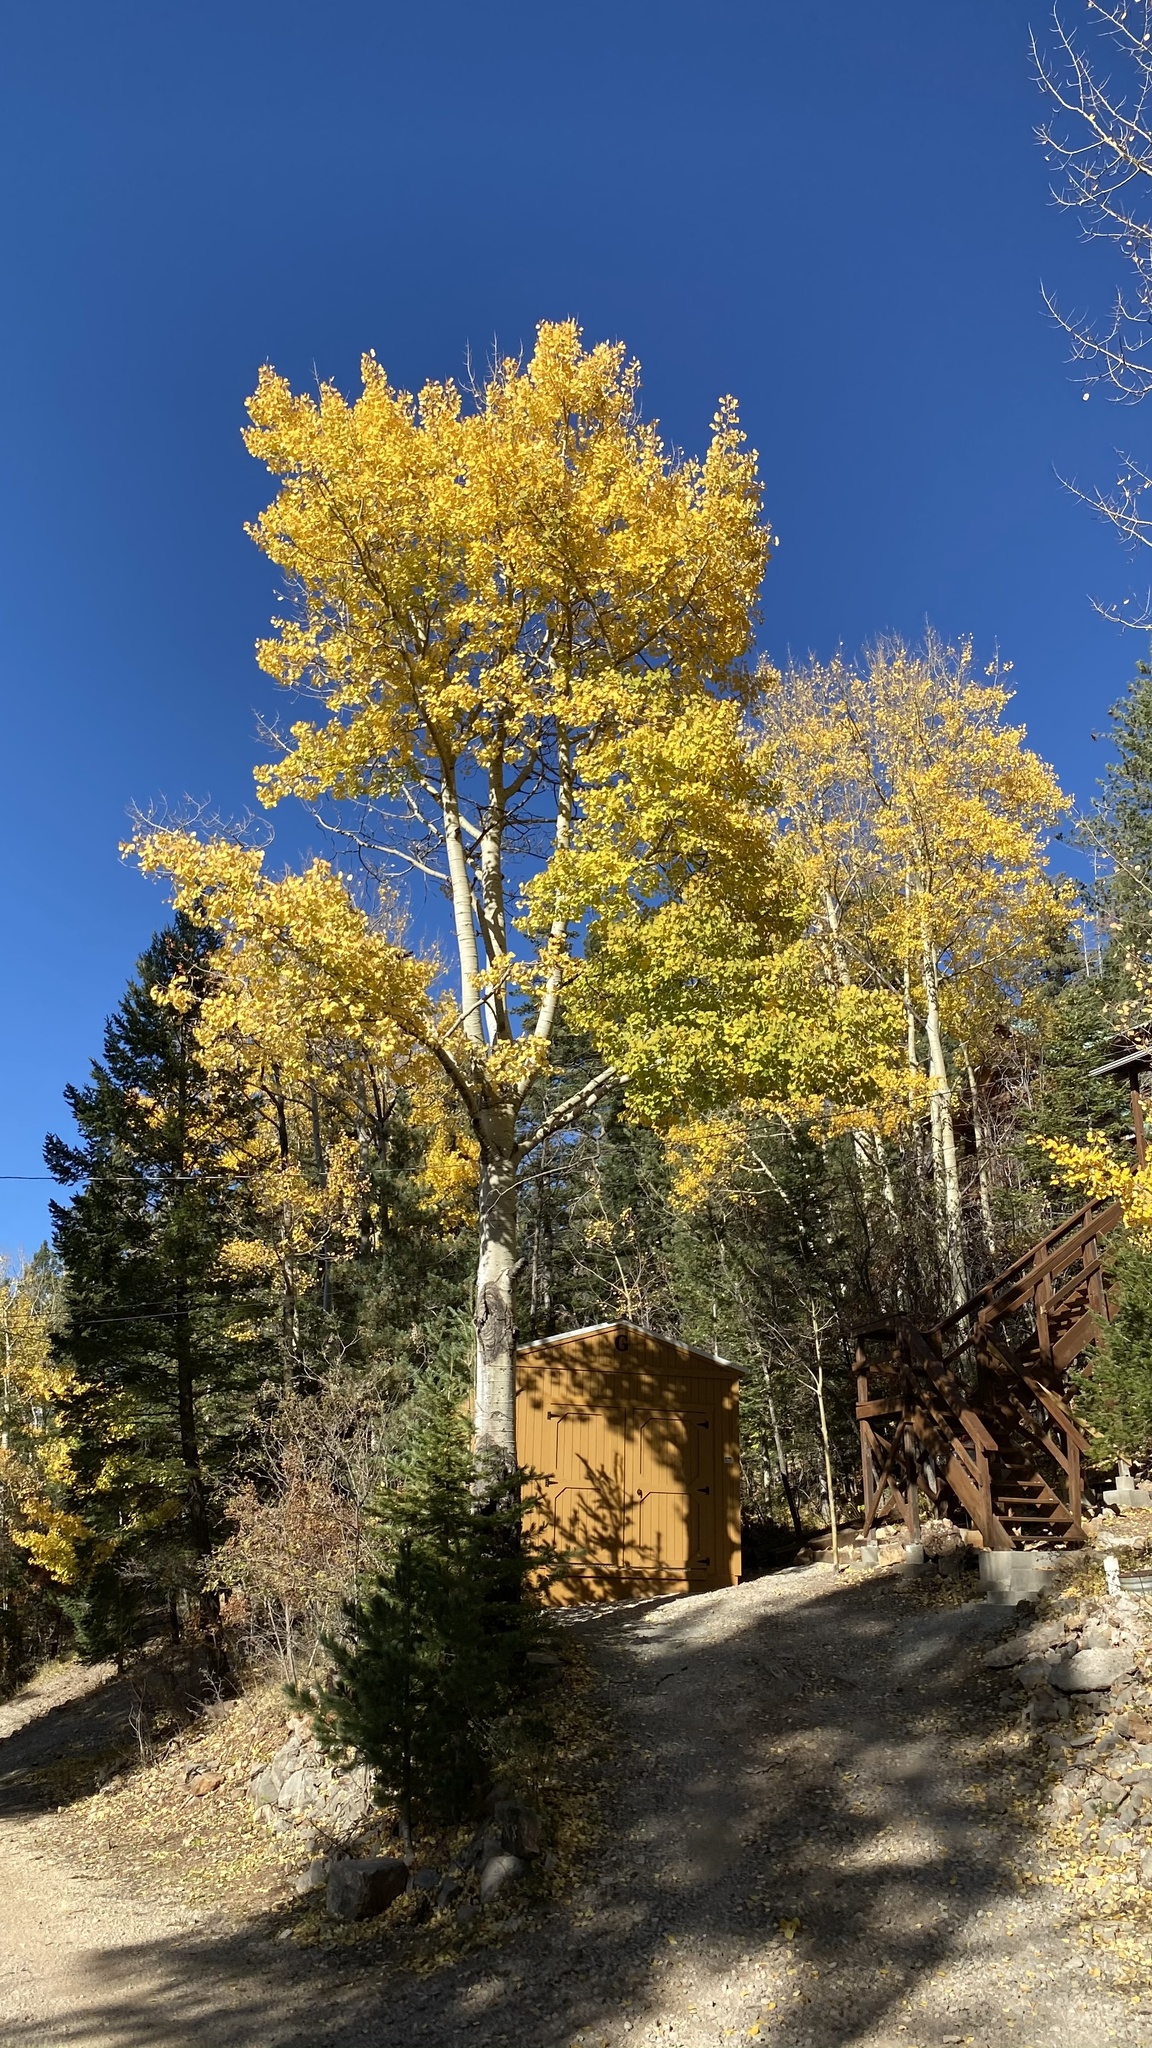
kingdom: Plantae
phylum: Tracheophyta
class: Magnoliopsida
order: Malpighiales
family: Salicaceae
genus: Populus
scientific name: Populus tremuloides
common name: Quaking aspen
